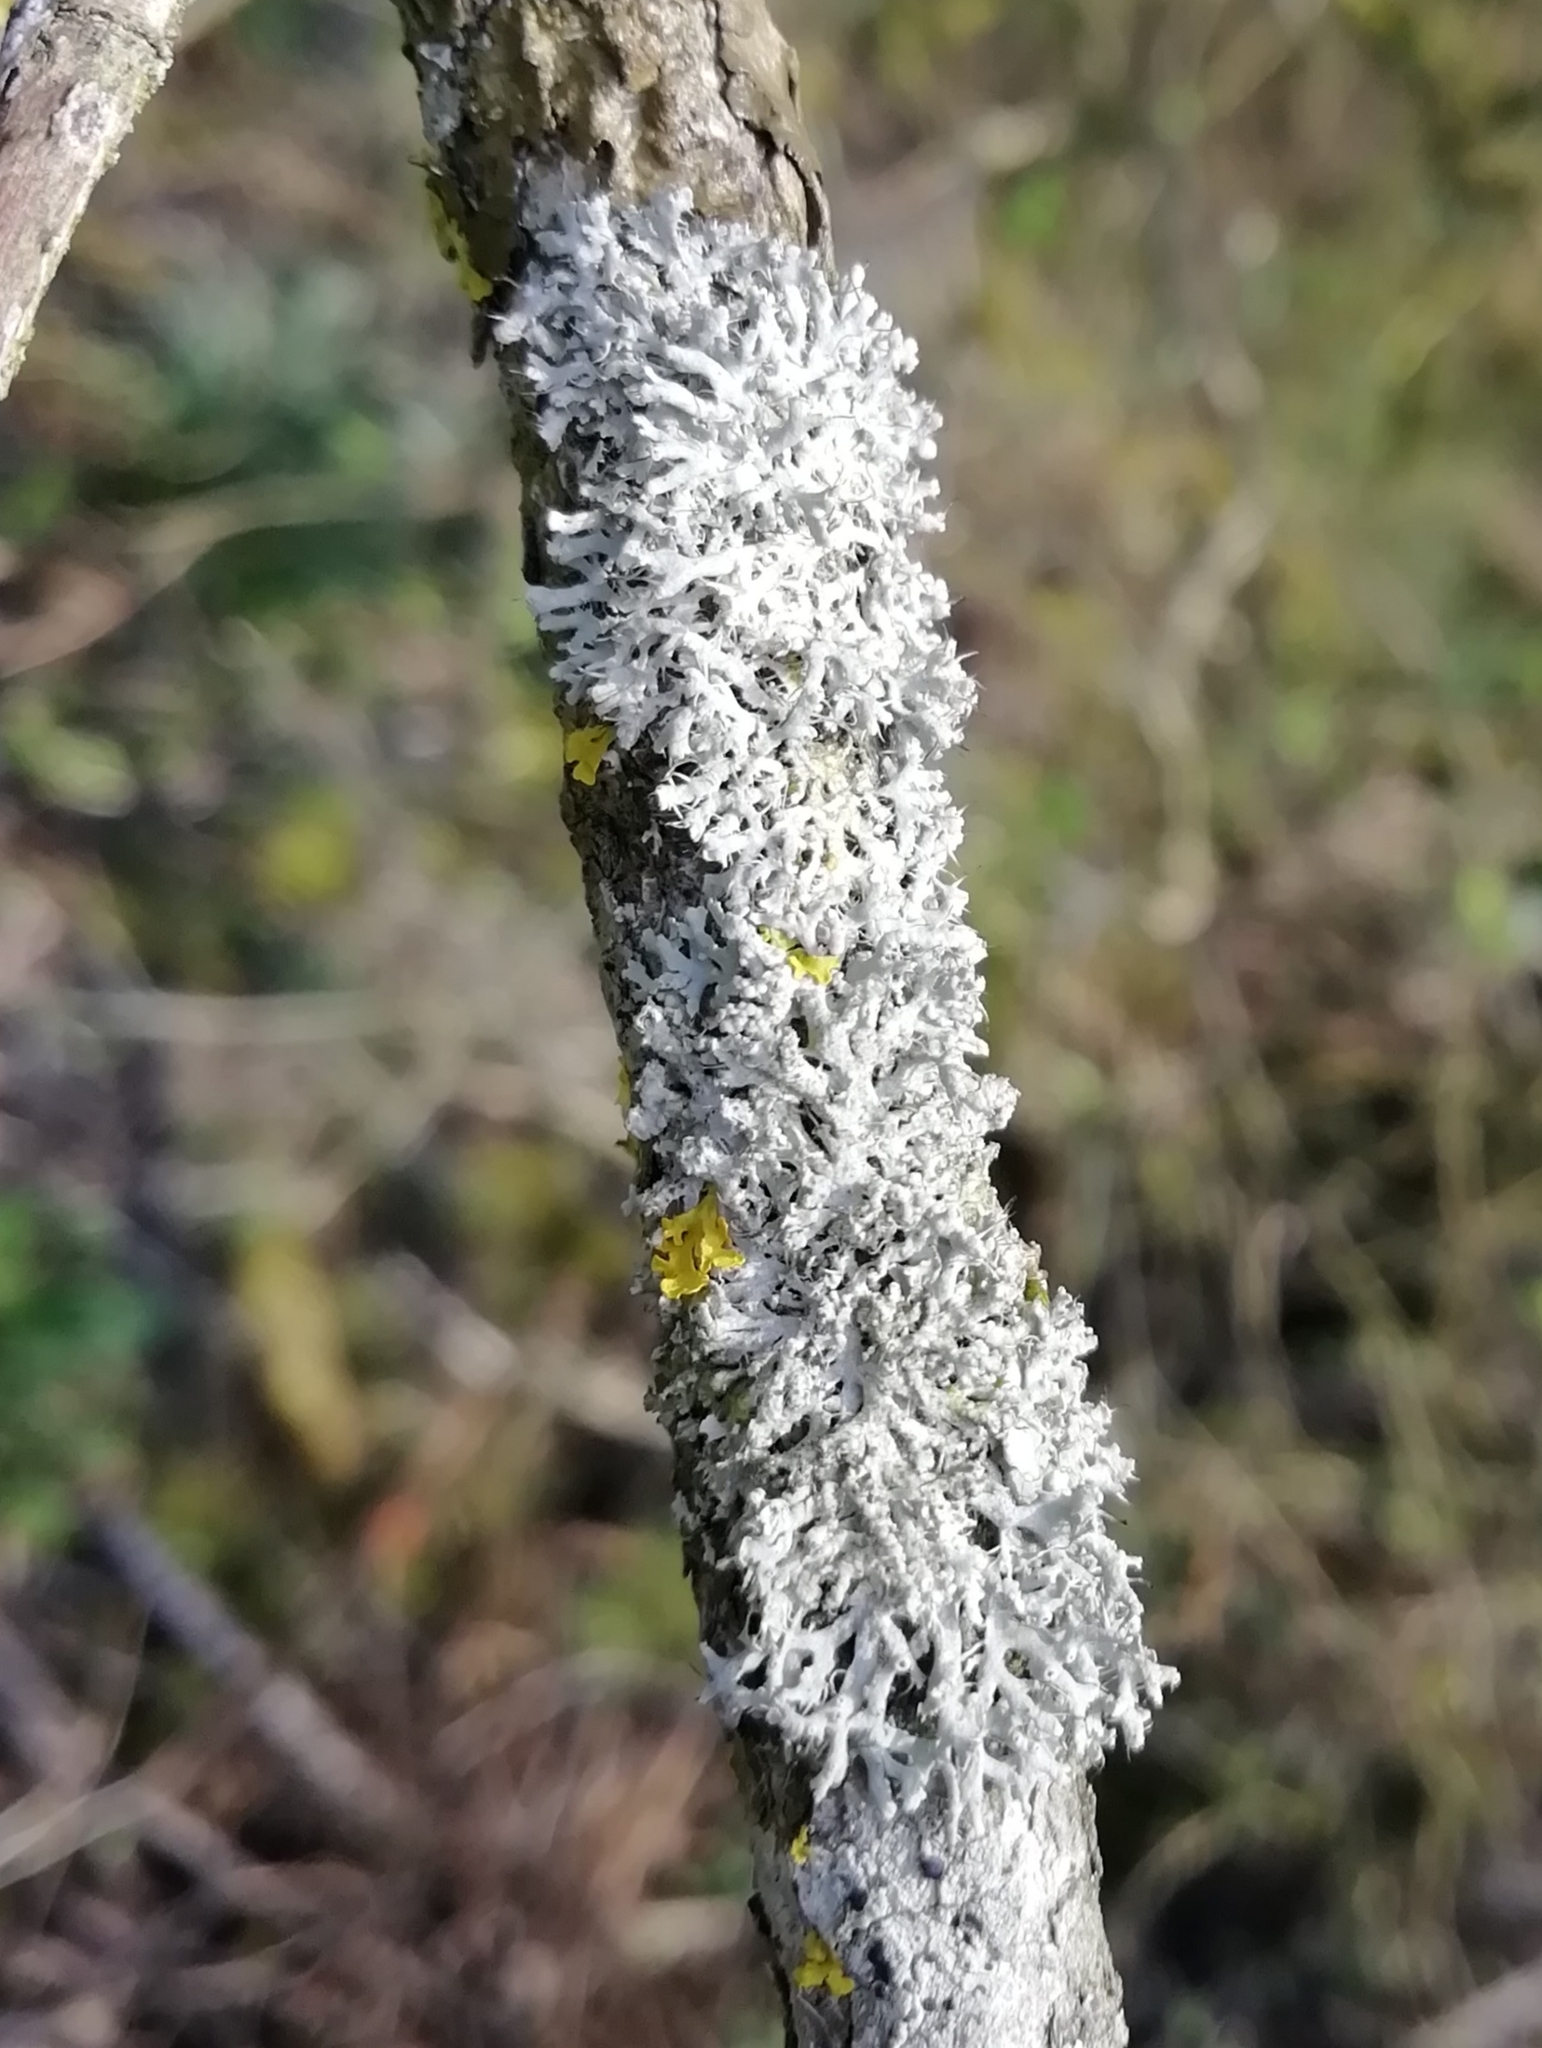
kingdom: Fungi
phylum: Ascomycota
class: Lecanoromycetes
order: Caliciales
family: Physciaceae
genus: Physcia
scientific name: Physcia adscendens
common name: Hooded rosette lichen
